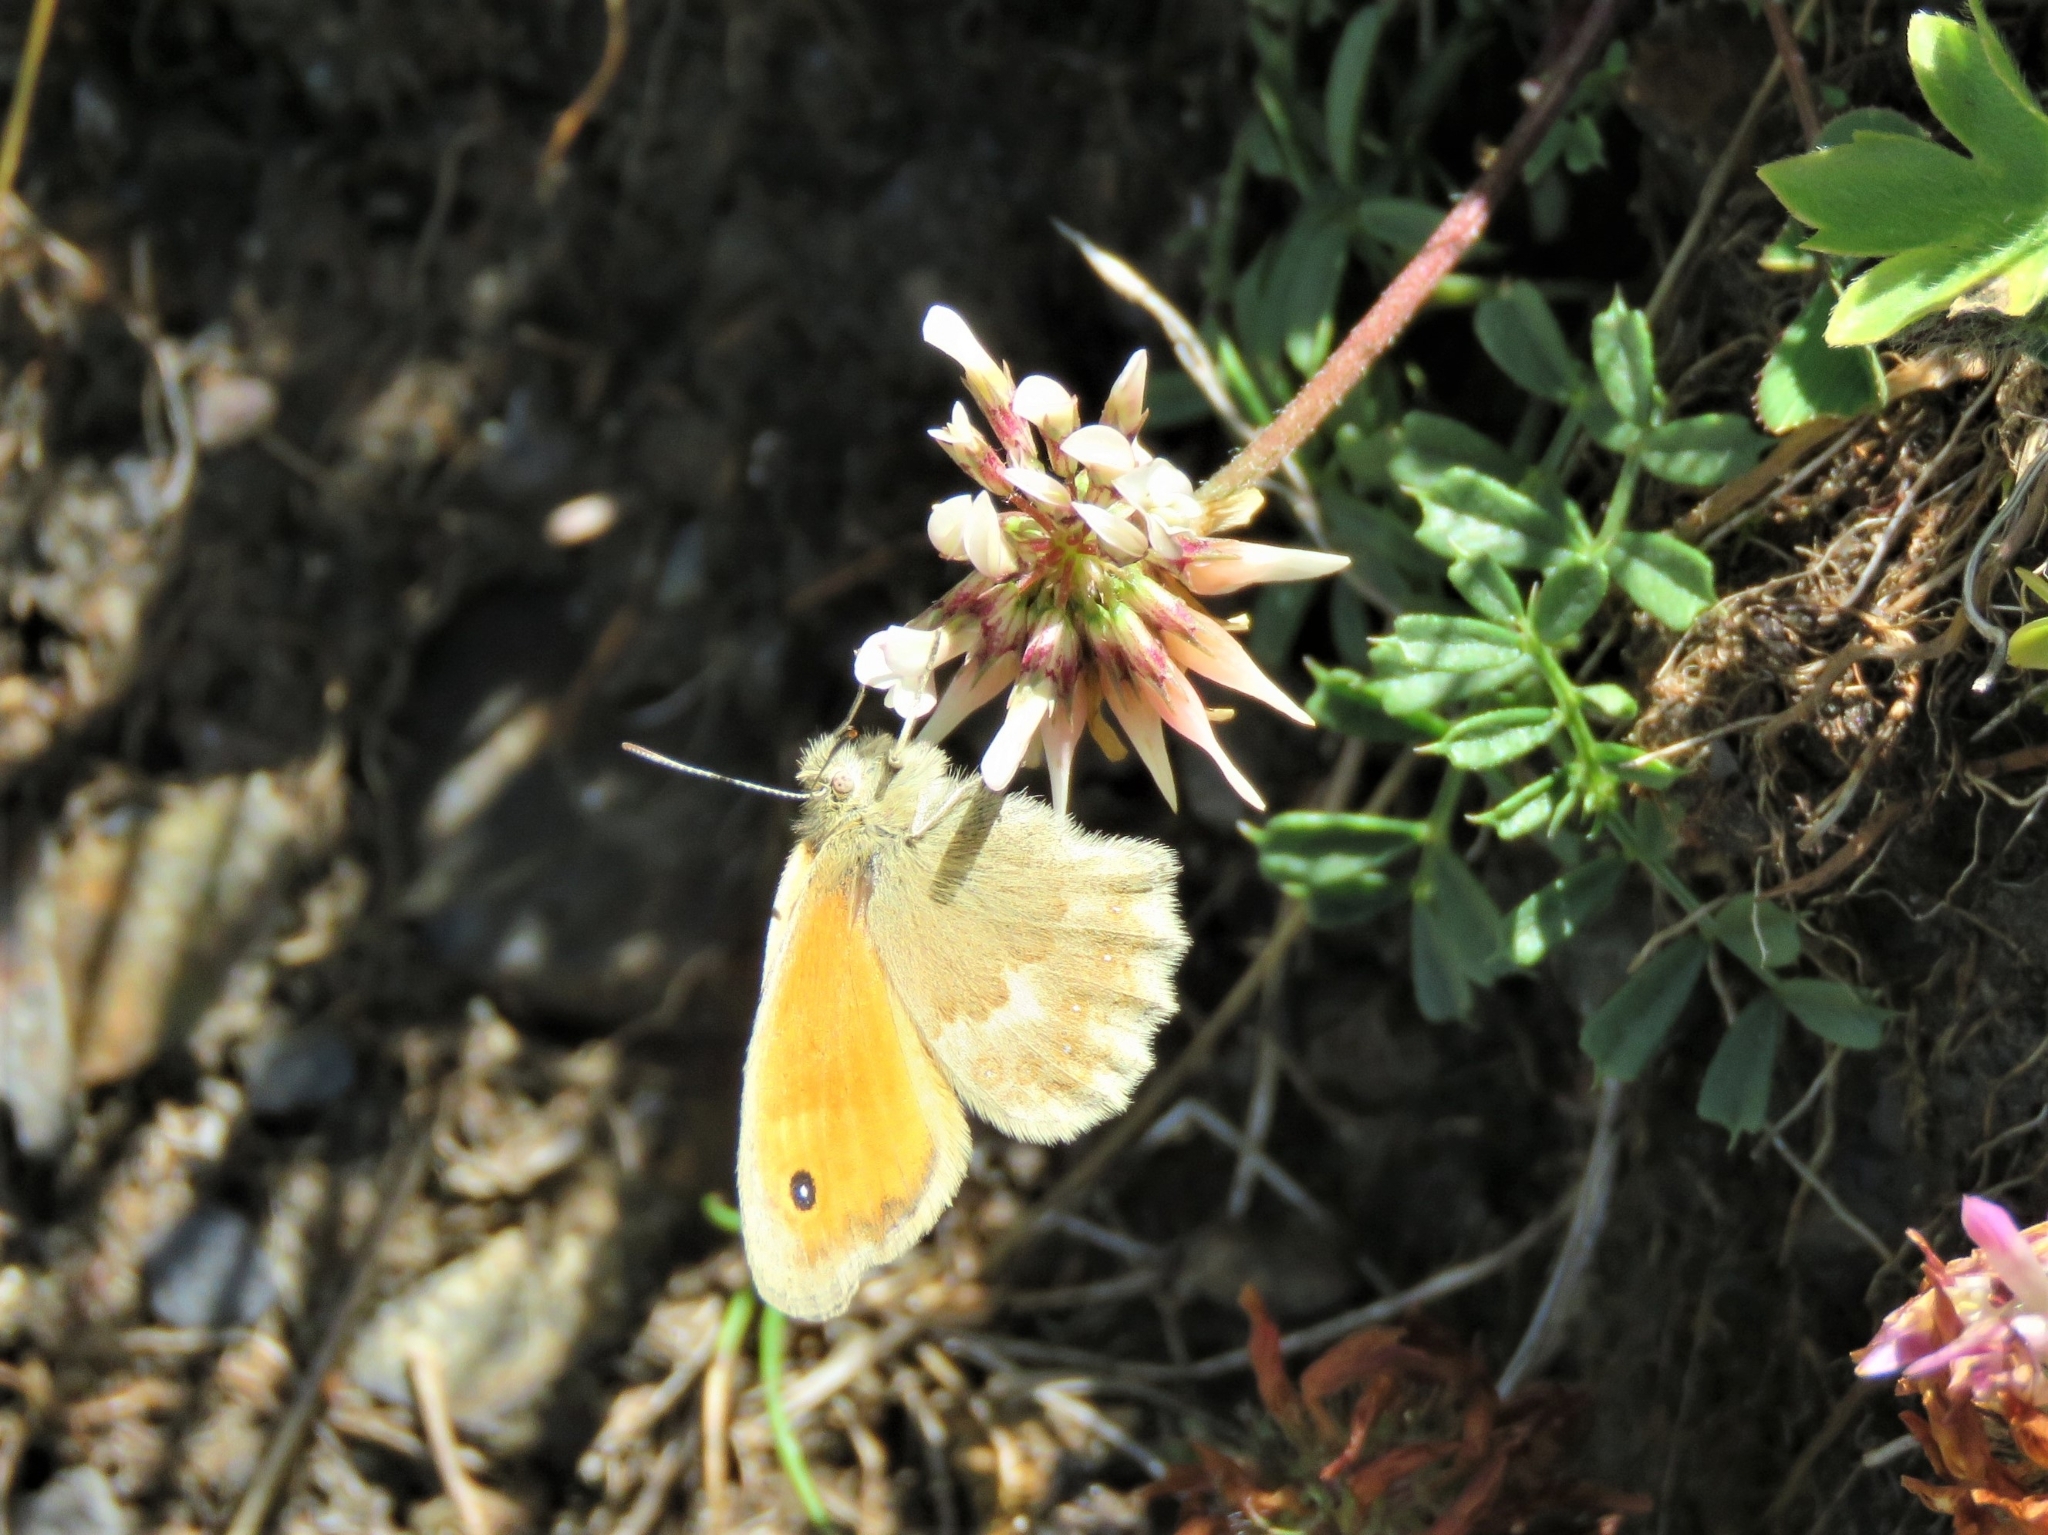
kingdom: Animalia
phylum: Arthropoda
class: Insecta
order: Lepidoptera
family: Nymphalidae
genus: Coenonympha
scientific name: Coenonympha pamphilus
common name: Small heath
